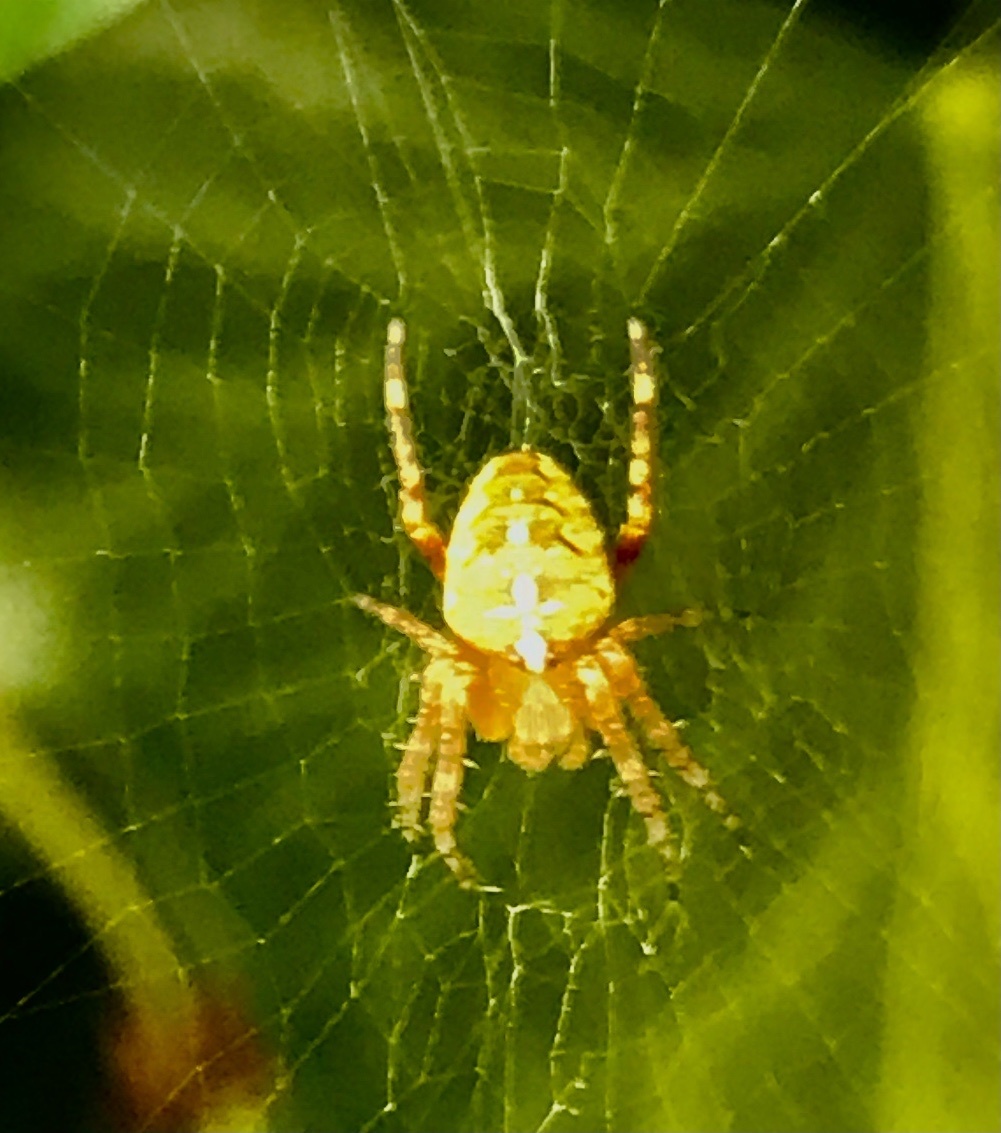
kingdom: Animalia
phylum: Arthropoda
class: Arachnida
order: Araneae
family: Araneidae
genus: Araneus
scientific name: Araneus diadematus
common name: Cross orbweaver
